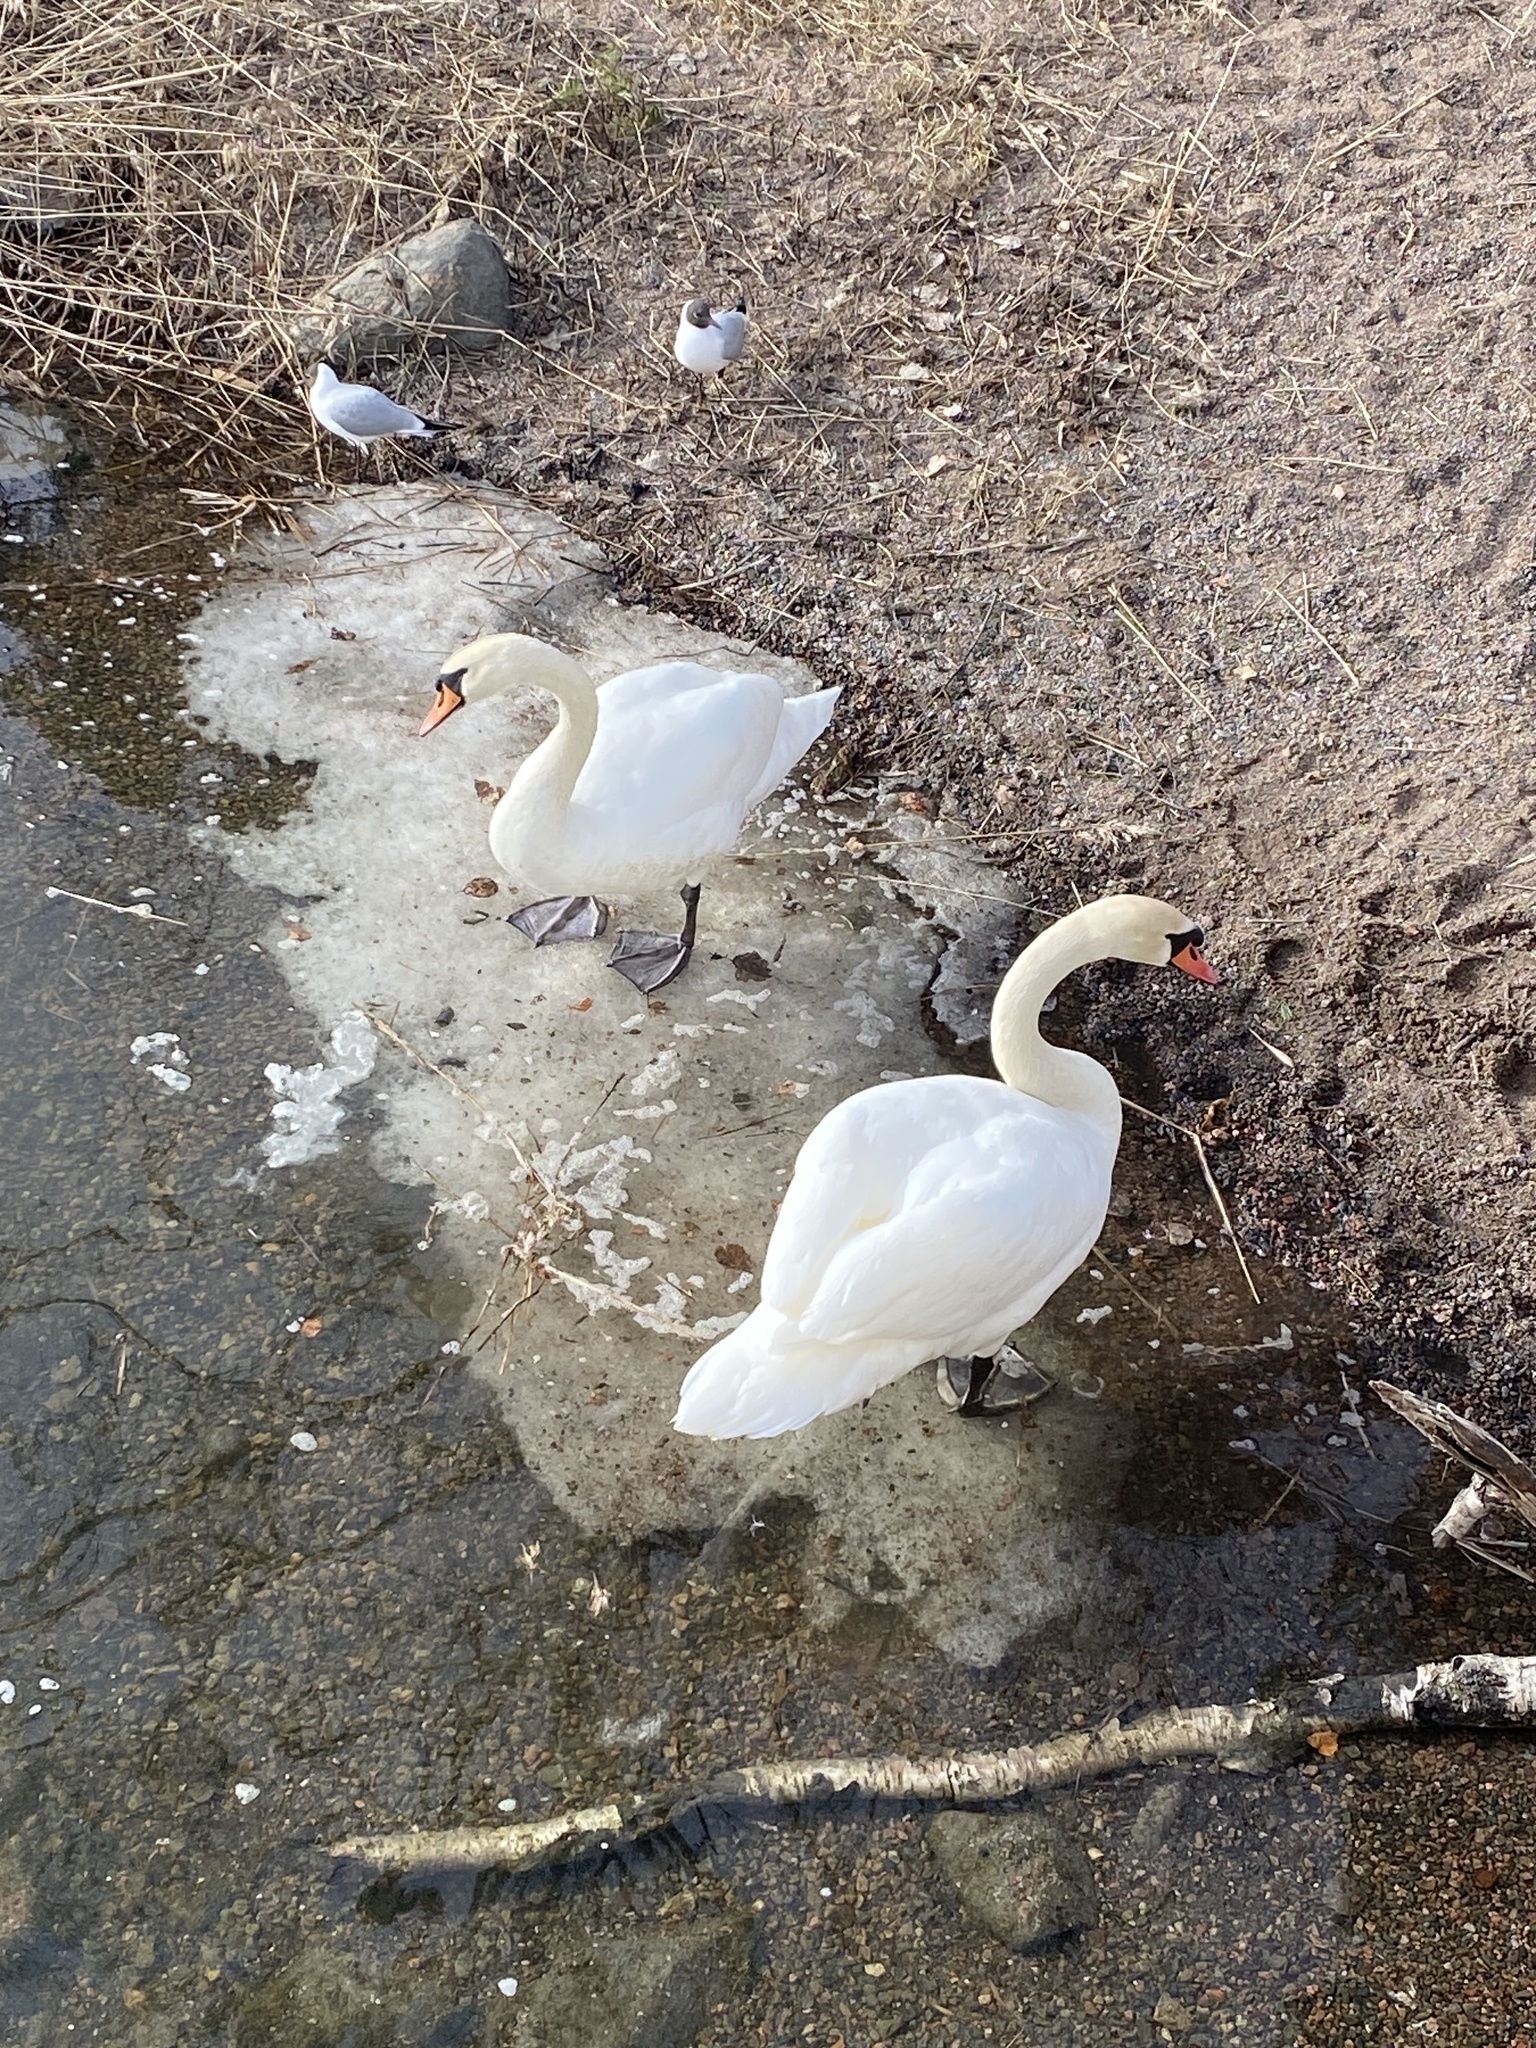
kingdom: Animalia
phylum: Chordata
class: Aves
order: Anseriformes
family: Anatidae
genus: Cygnus
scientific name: Cygnus olor
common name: Mute swan
